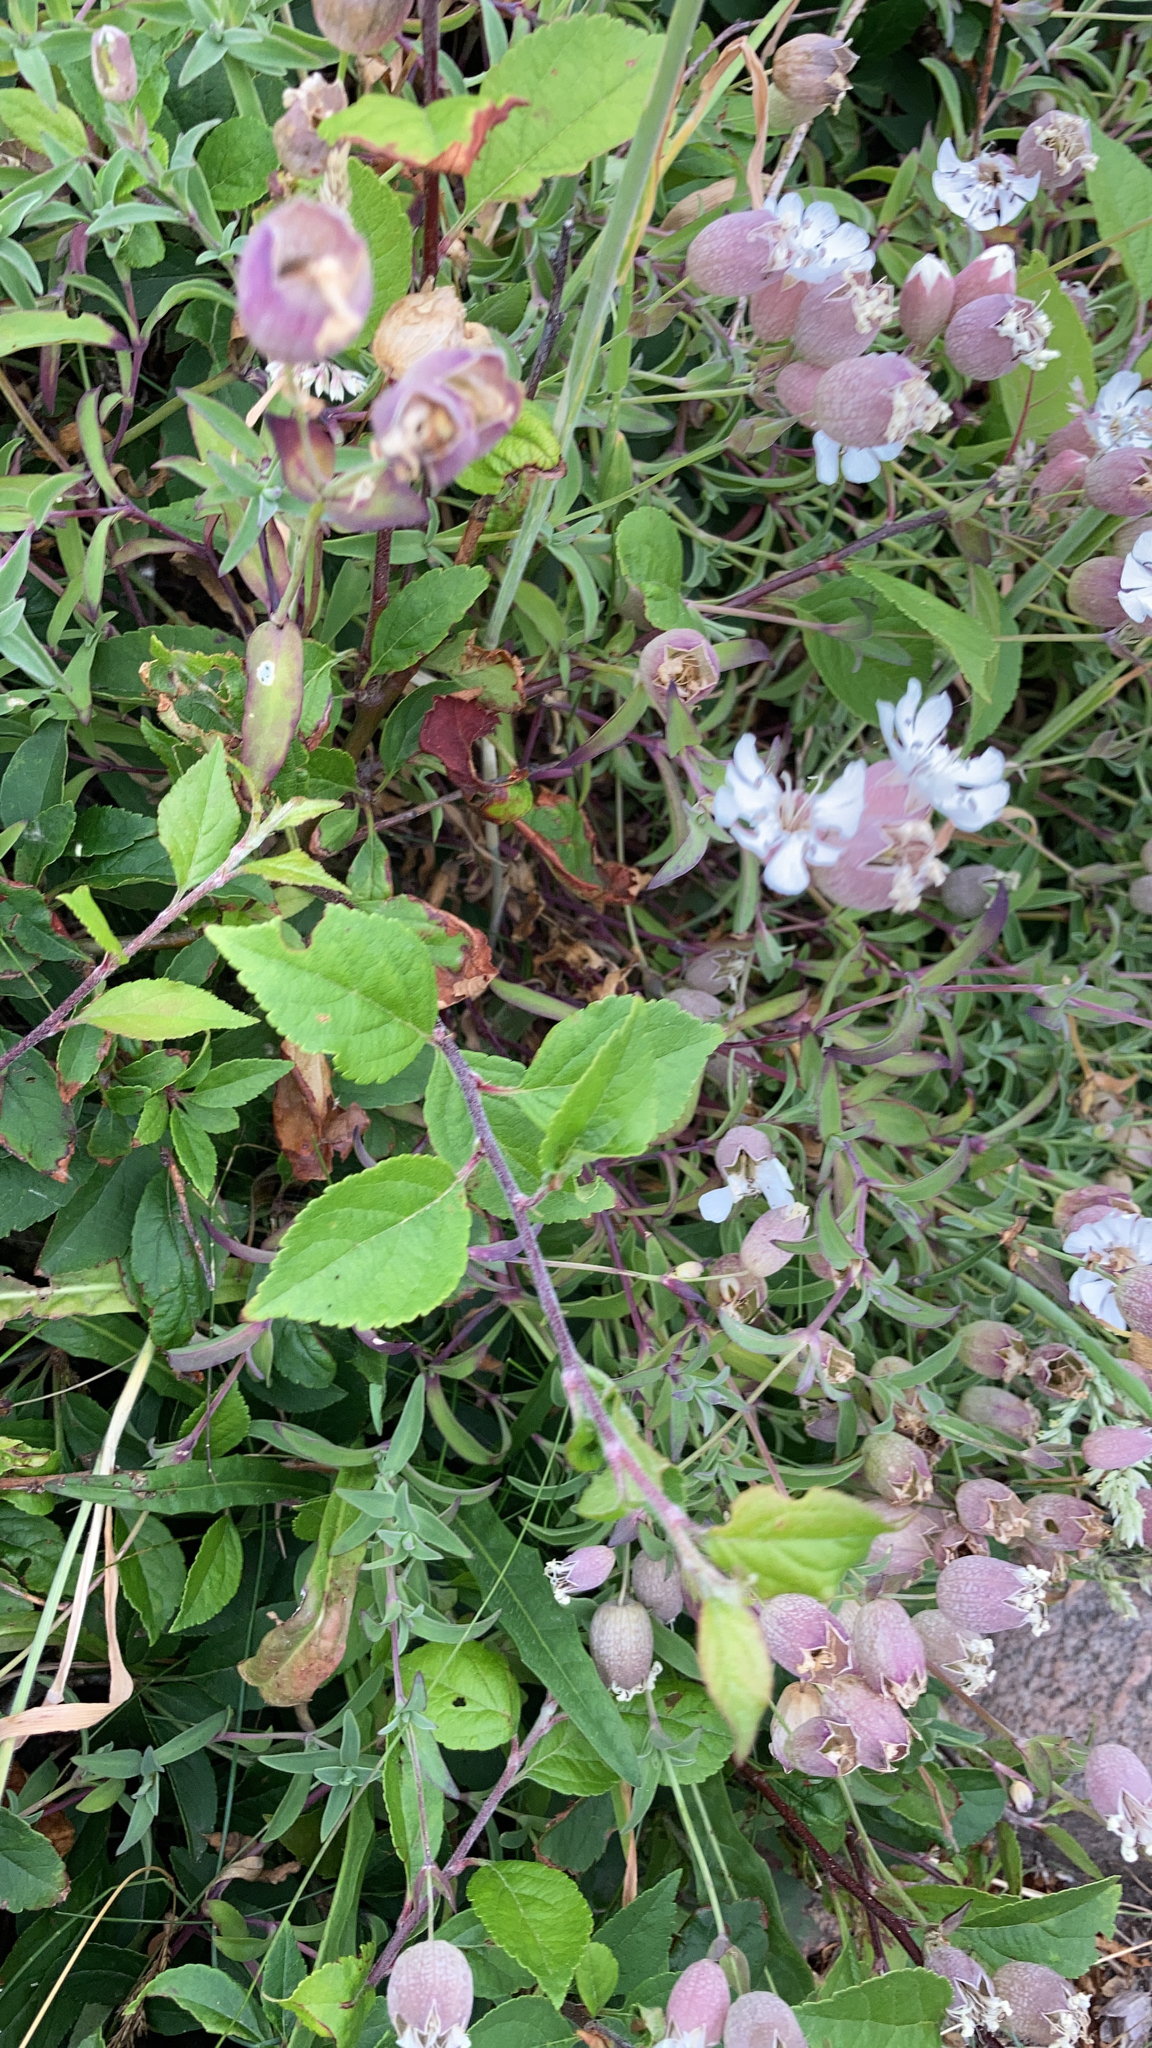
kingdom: Plantae
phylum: Tracheophyta
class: Magnoliopsida
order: Caryophyllales
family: Caryophyllaceae
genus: Silene
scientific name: Silene uniflora
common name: Sea campion
